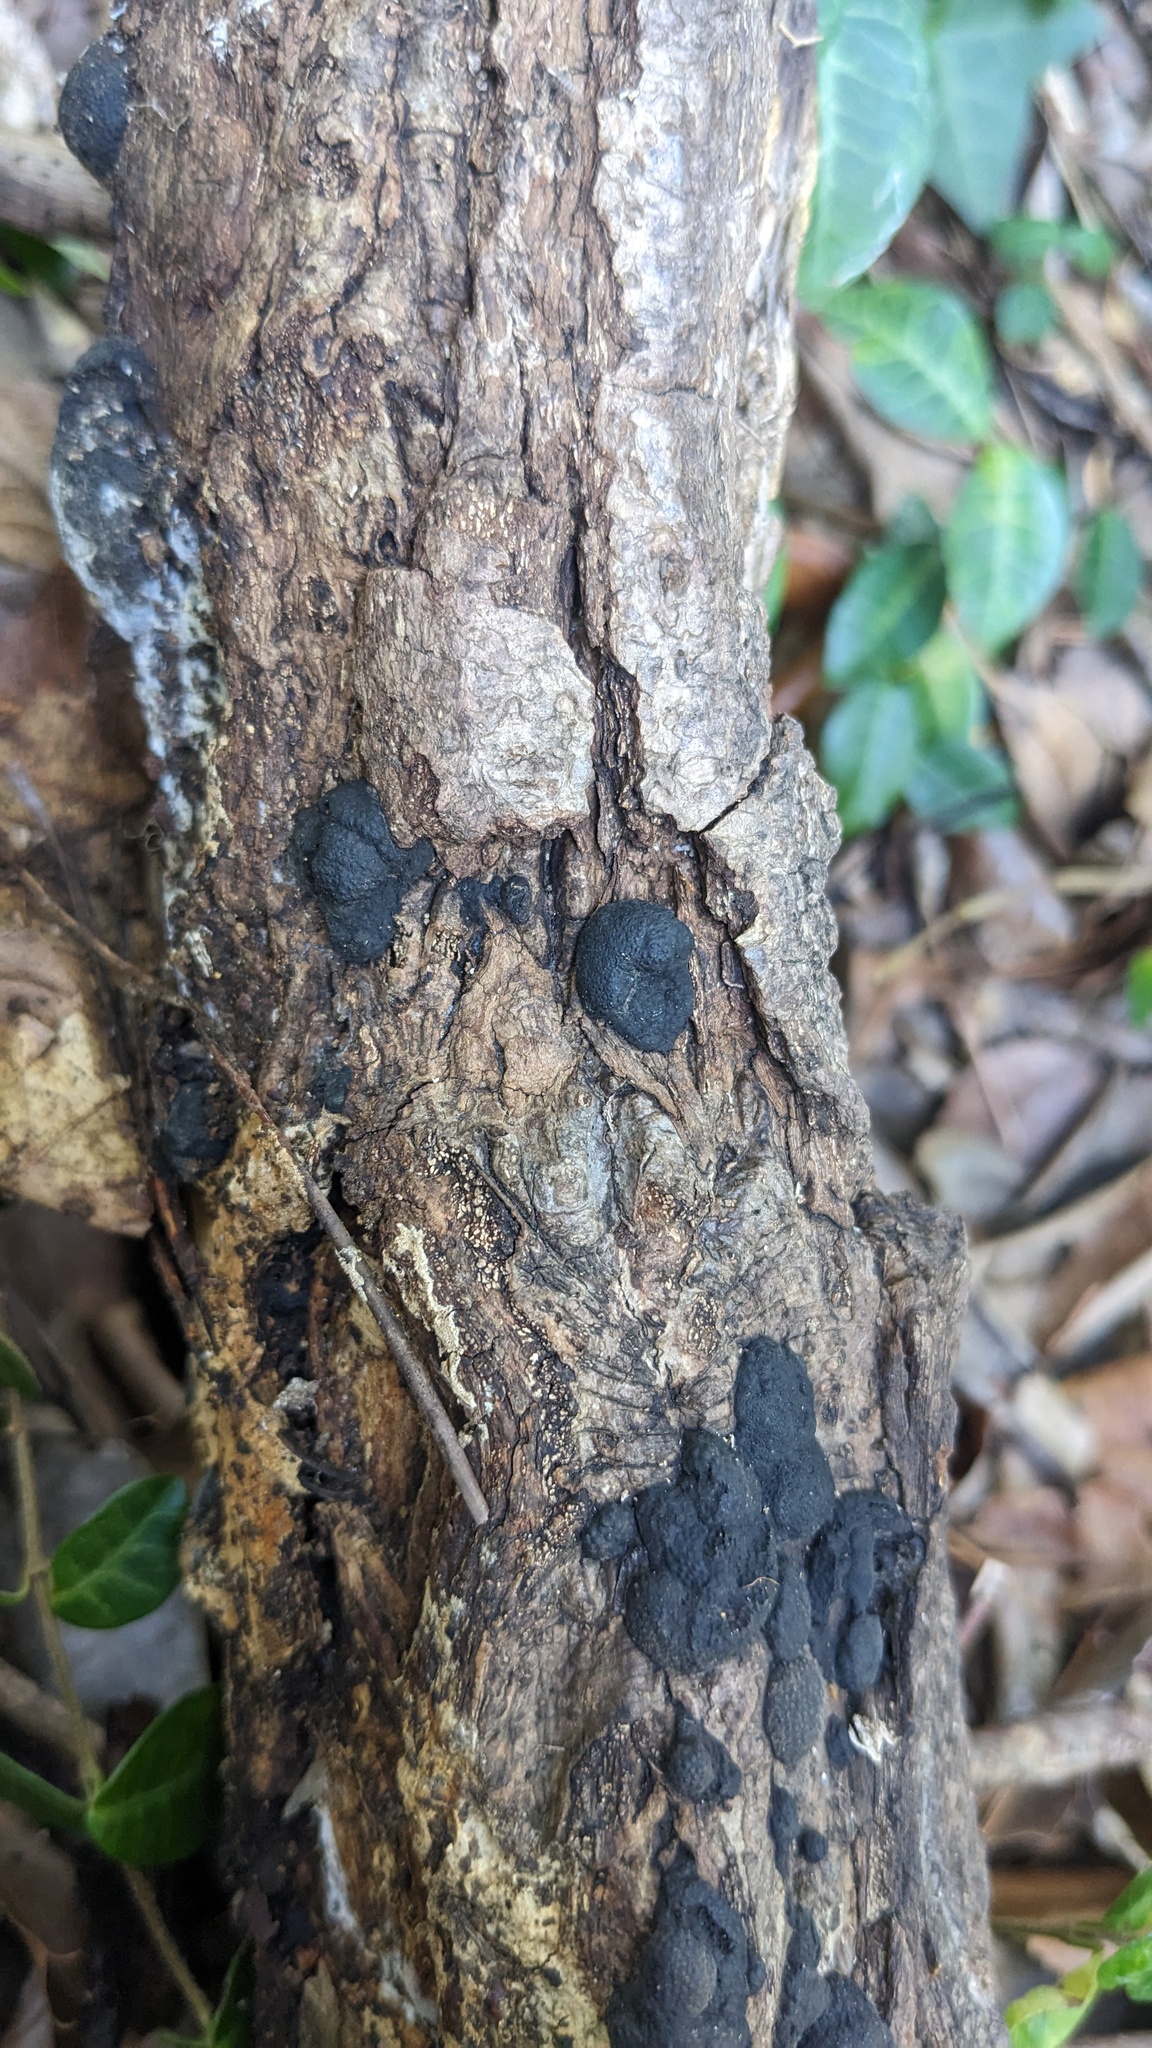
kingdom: Fungi
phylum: Ascomycota
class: Sordariomycetes
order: Xylariales
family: Hypoxylaceae
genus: Annulohypoxylon
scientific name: Annulohypoxylon truncatum
